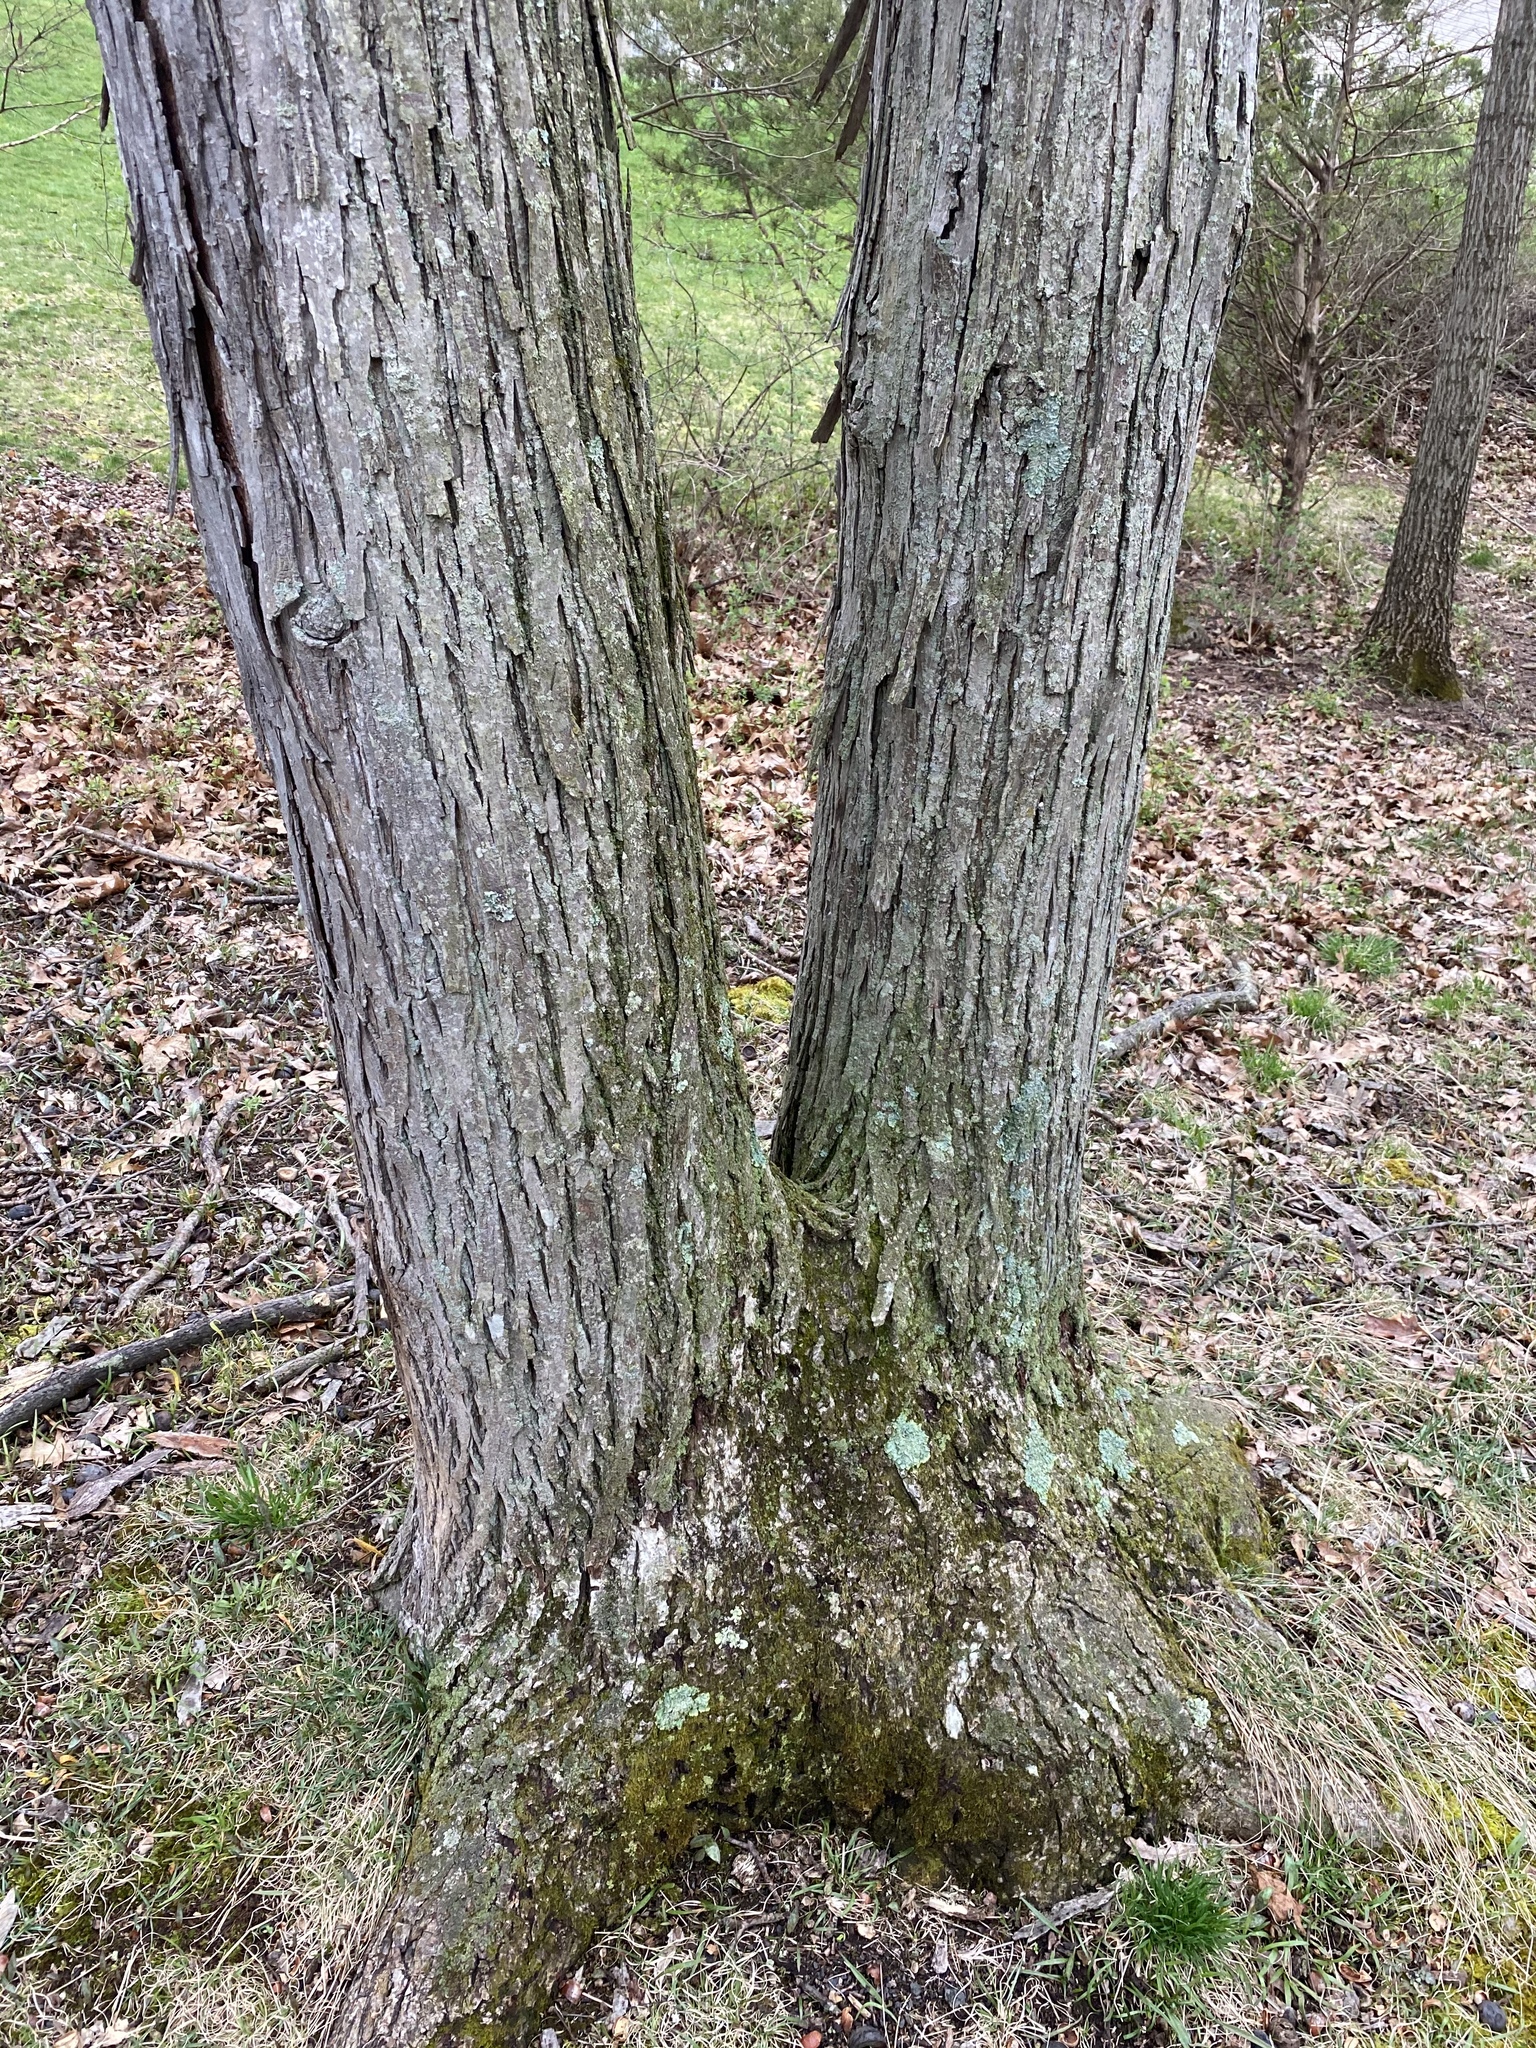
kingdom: Plantae
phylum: Tracheophyta
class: Magnoliopsida
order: Fagales
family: Juglandaceae
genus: Carya
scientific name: Carya ovata
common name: Shagbark hickory
